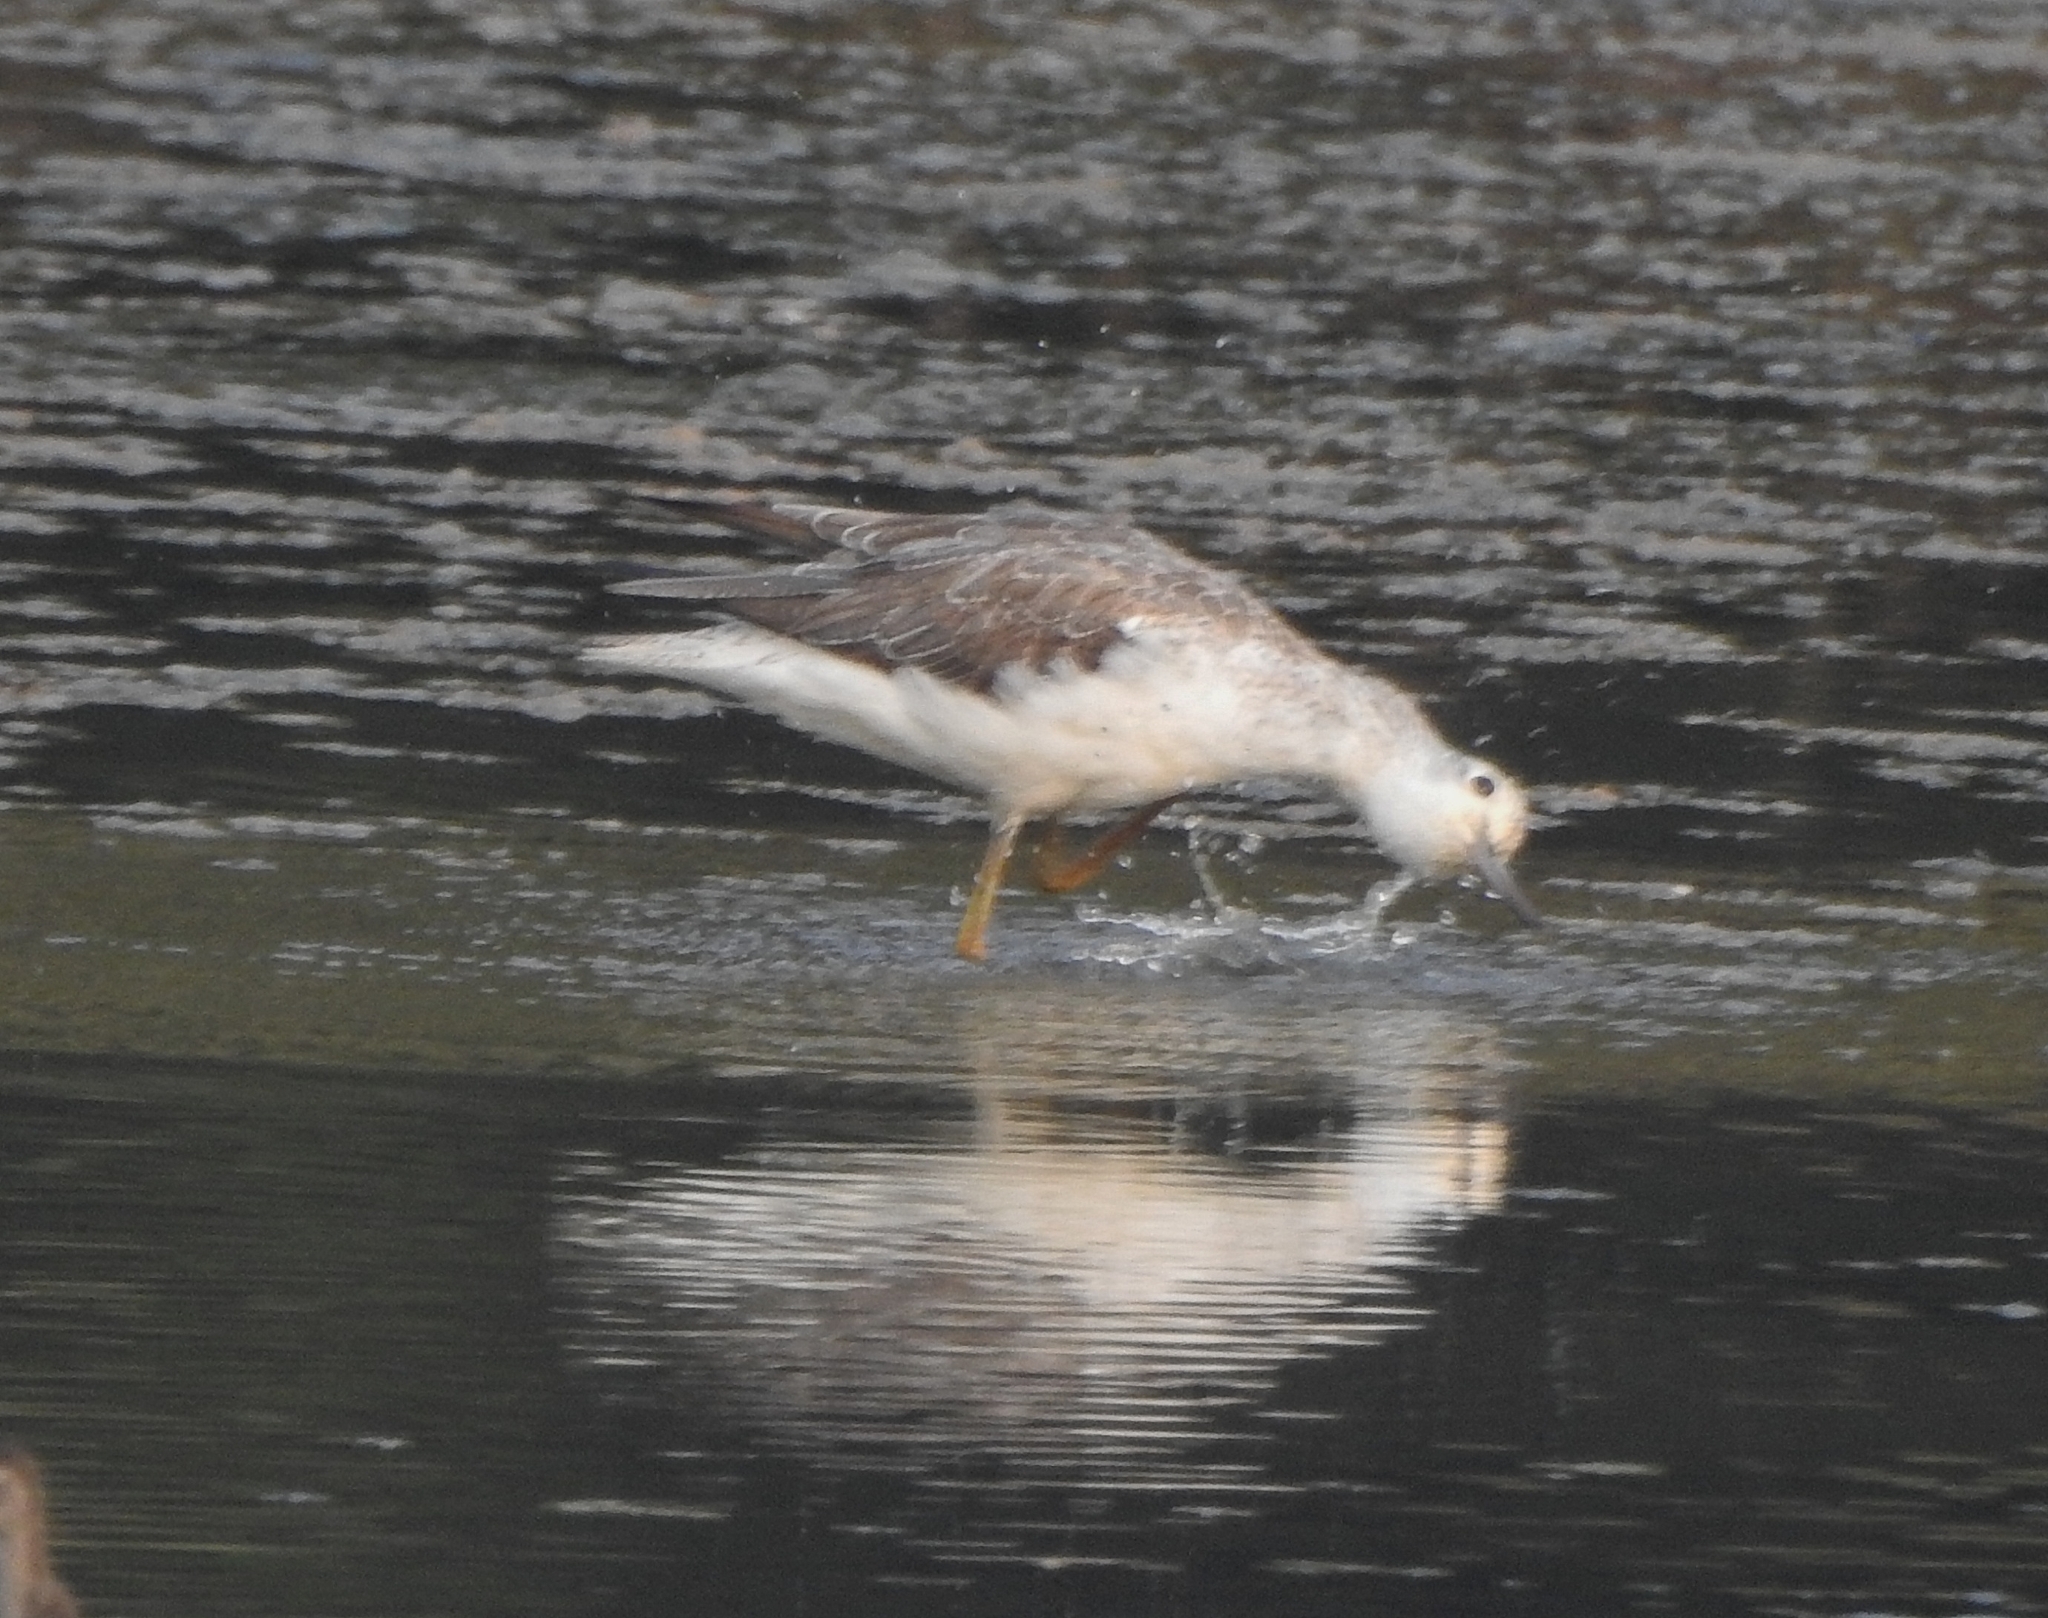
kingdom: Animalia
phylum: Chordata
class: Aves
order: Charadriiformes
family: Scolopacidae
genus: Tringa
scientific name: Tringa nebularia
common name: Common greenshank
